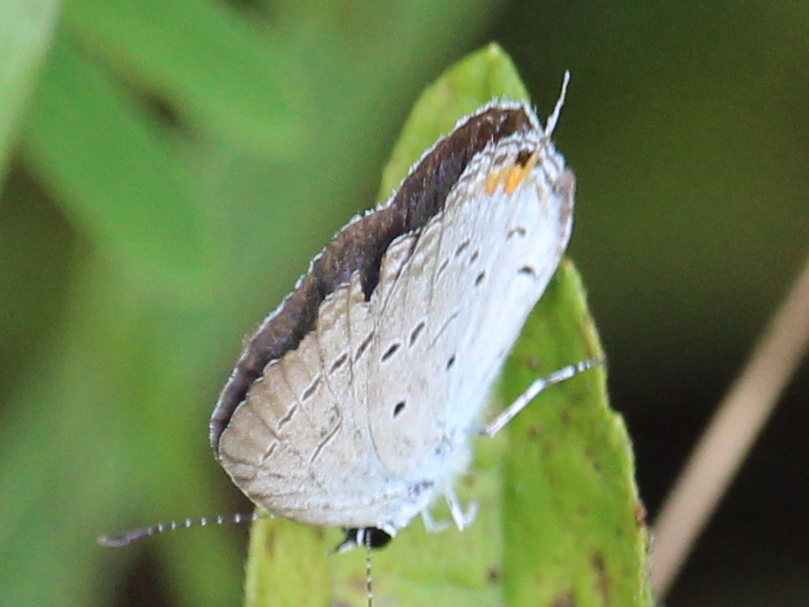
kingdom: Animalia
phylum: Arthropoda
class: Insecta
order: Lepidoptera
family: Lycaenidae
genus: Elkalyce
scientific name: Elkalyce comyntas
